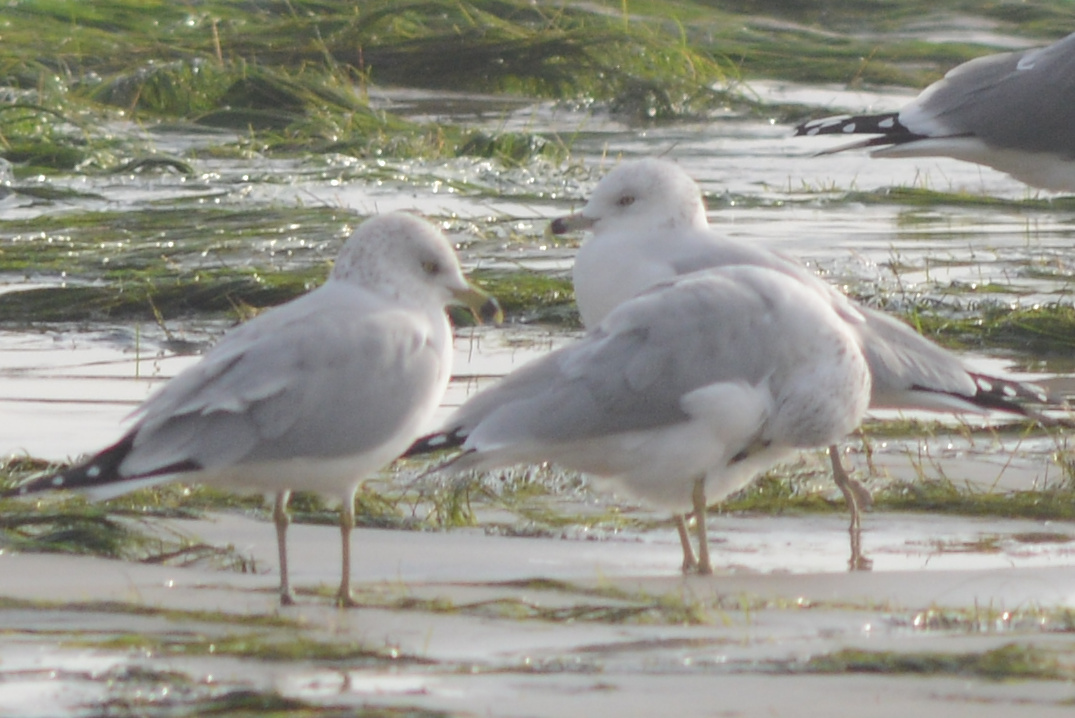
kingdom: Animalia
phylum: Chordata
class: Aves
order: Charadriiformes
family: Laridae
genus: Larus
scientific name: Larus delawarensis
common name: Ring-billed gull
